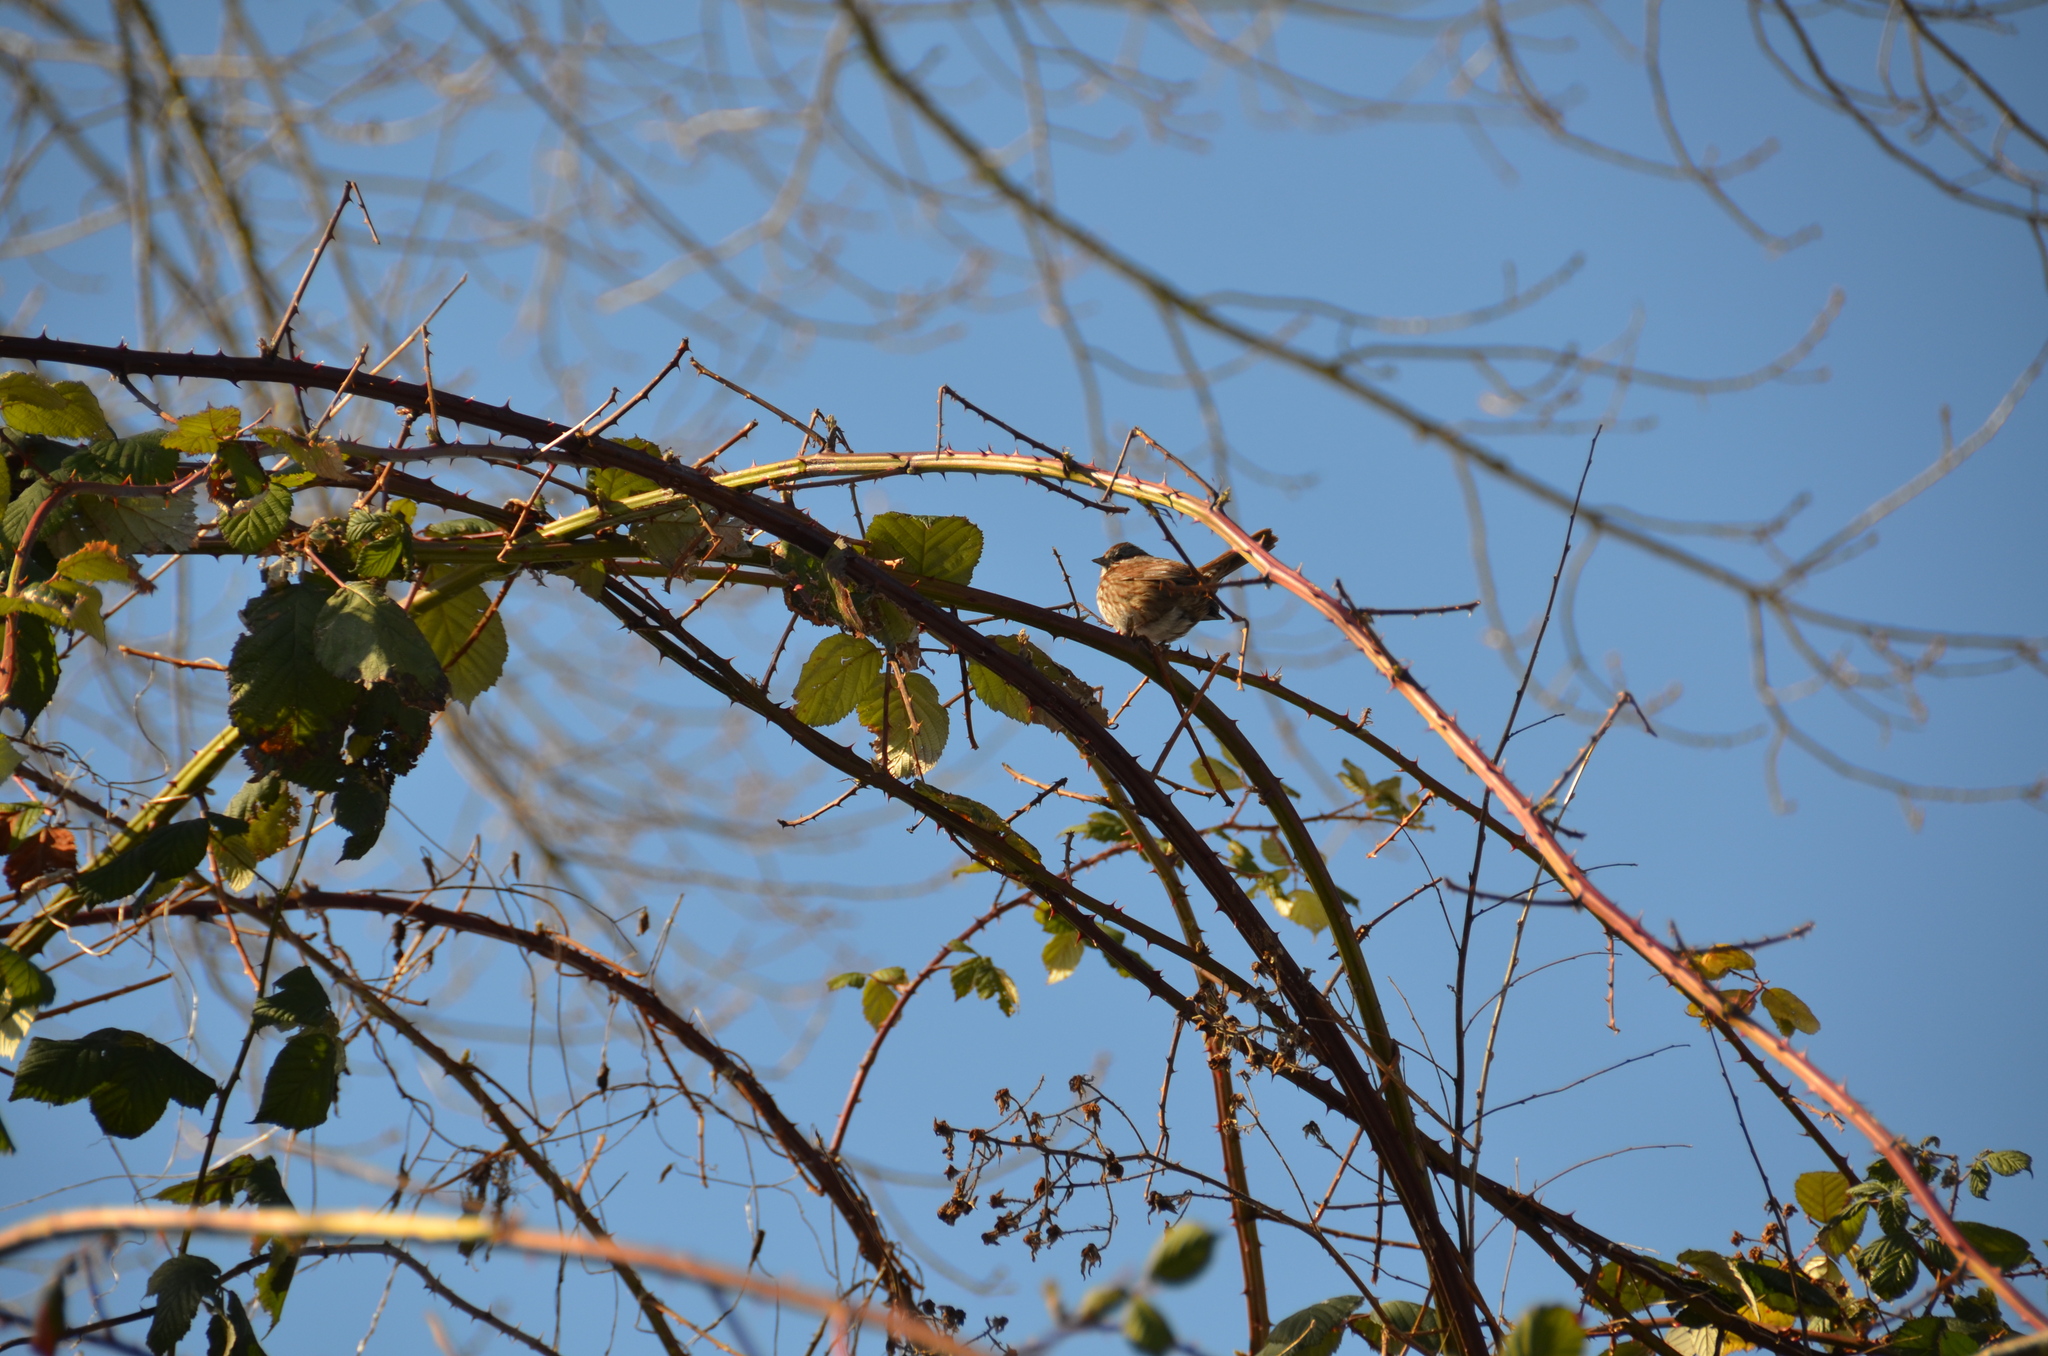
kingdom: Animalia
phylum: Chordata
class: Aves
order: Passeriformes
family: Passerellidae
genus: Melospiza
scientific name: Melospiza melodia
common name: Song sparrow
